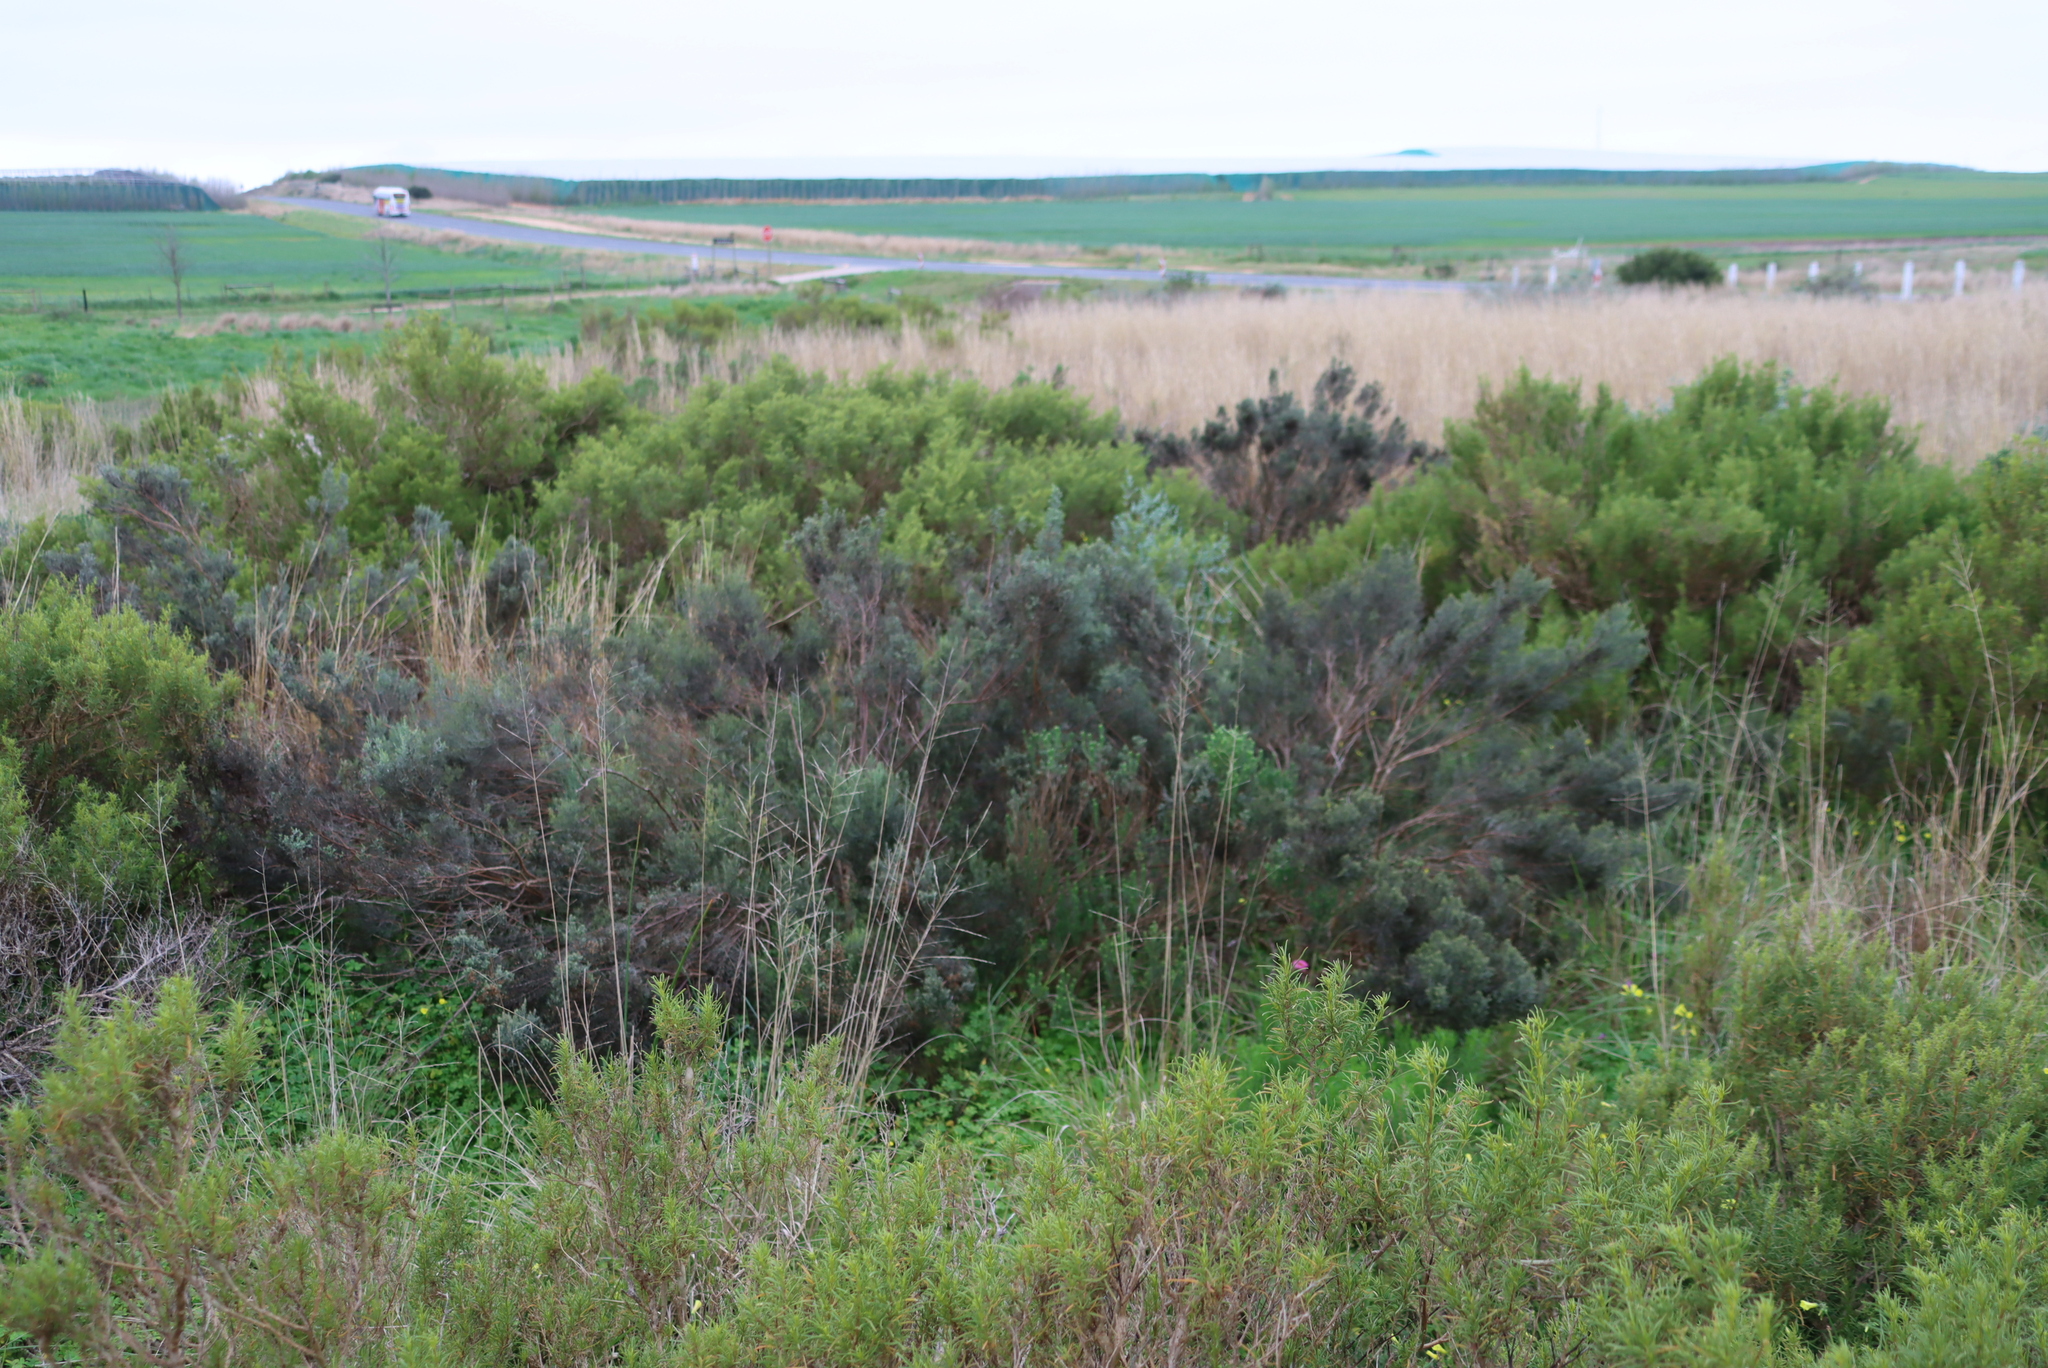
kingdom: Plantae
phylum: Tracheophyta
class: Magnoliopsida
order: Asterales
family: Asteraceae
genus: Dicerothamnus
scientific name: Dicerothamnus rhinocerotis
